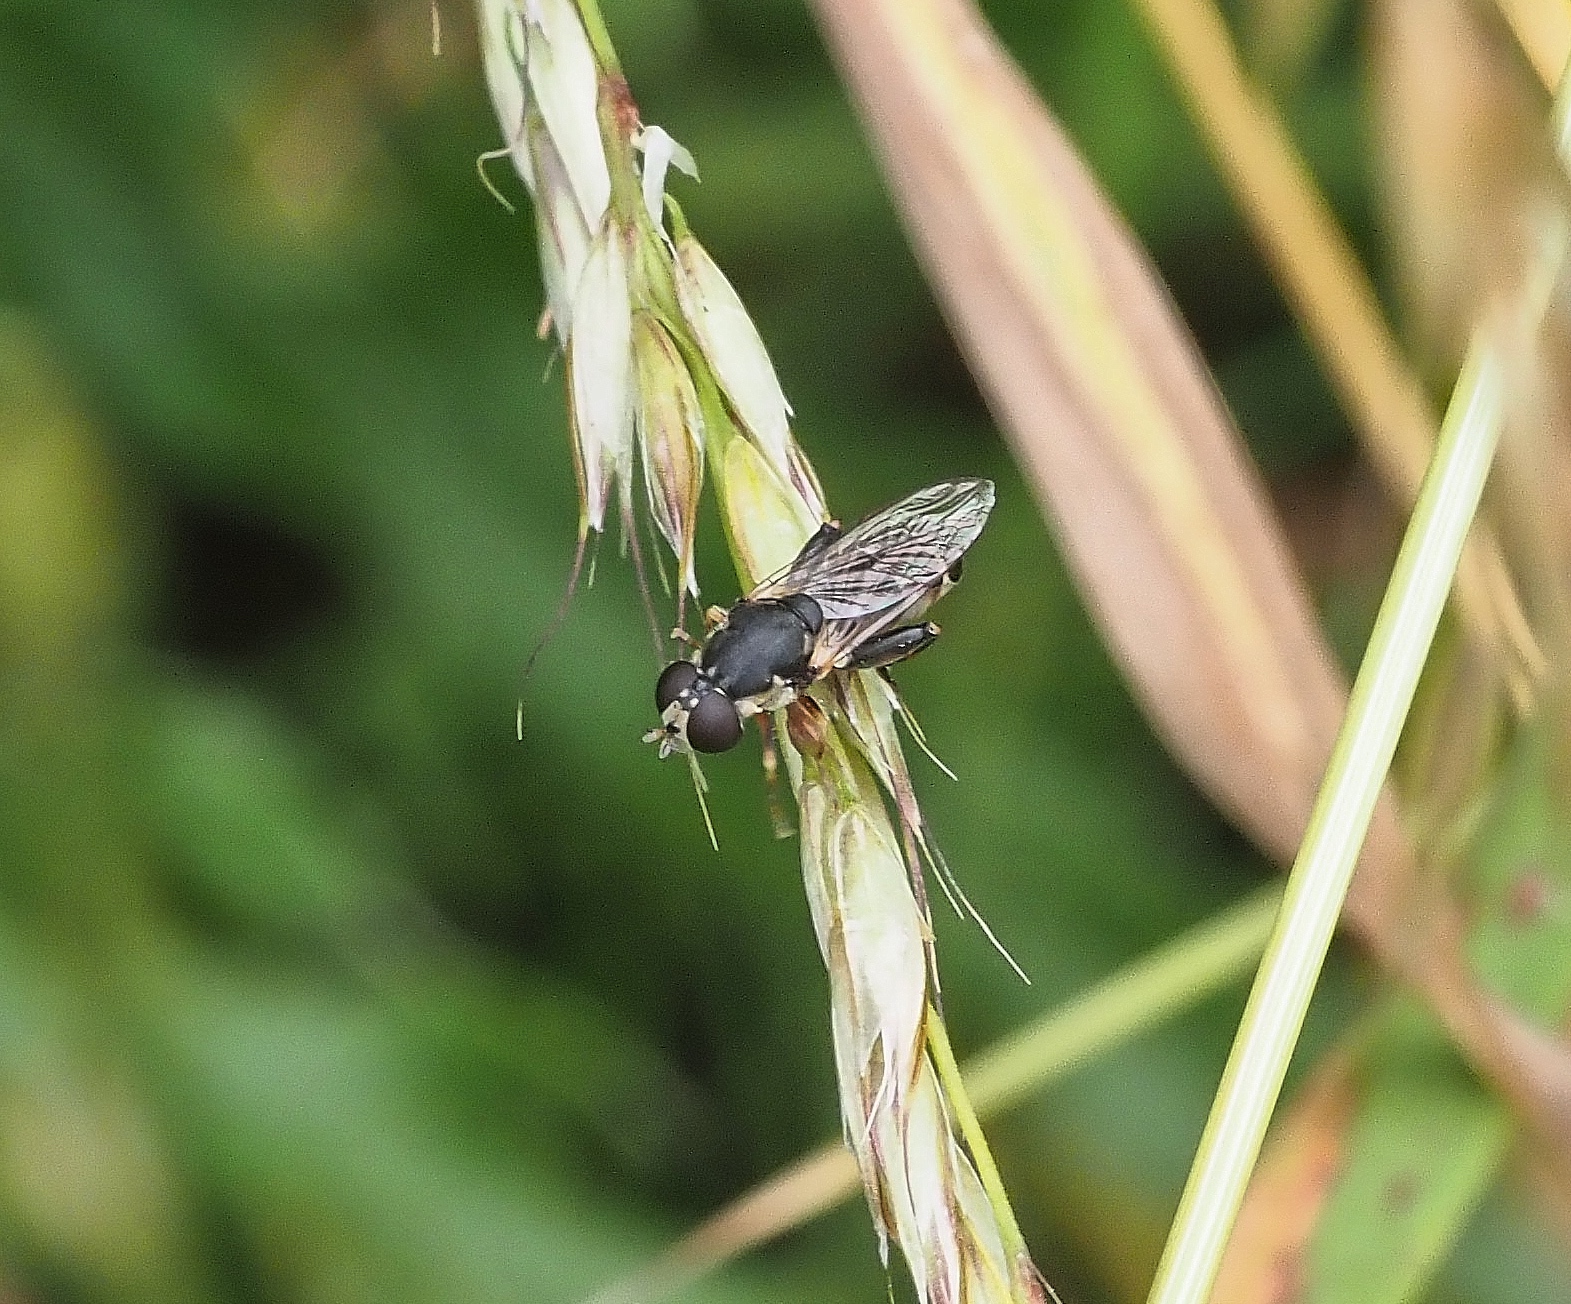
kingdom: Animalia
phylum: Arthropoda
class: Insecta
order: Diptera
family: Syrphidae
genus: Syritta
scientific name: Syritta pipiens
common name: Hover fly
